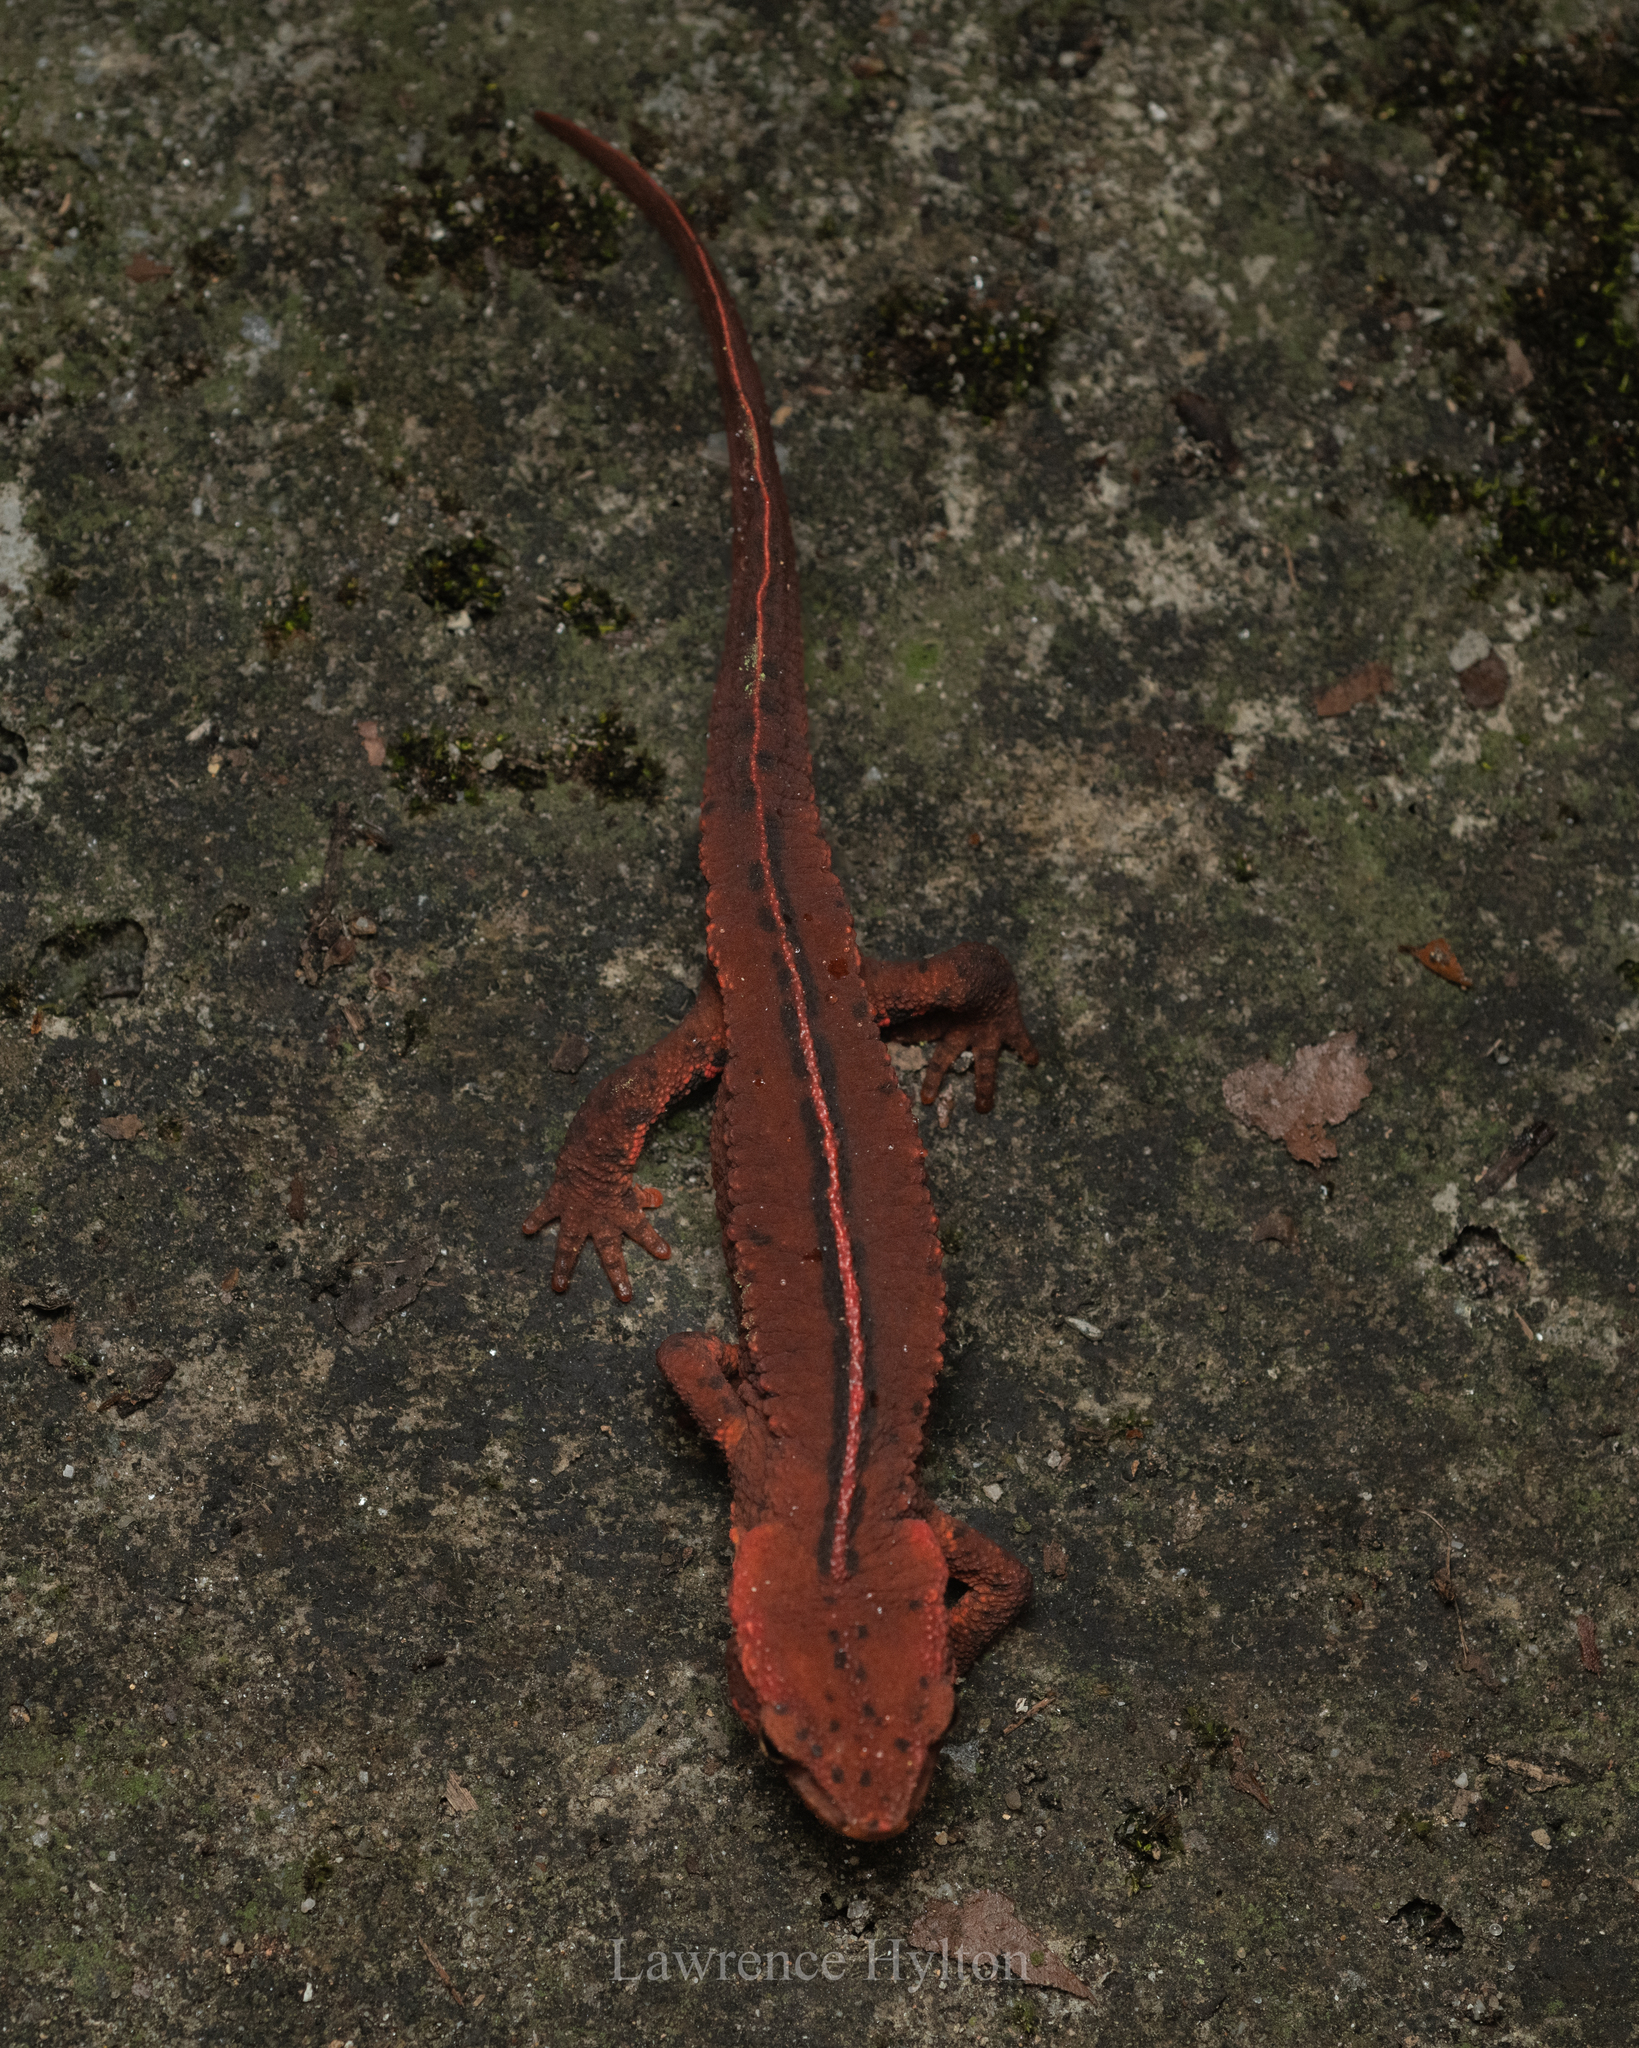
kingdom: Animalia
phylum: Chordata
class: Amphibia
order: Caudata
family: Salamandridae
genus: Paramesotriton
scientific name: Paramesotriton hongkongensis
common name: Hong kong warty newt
